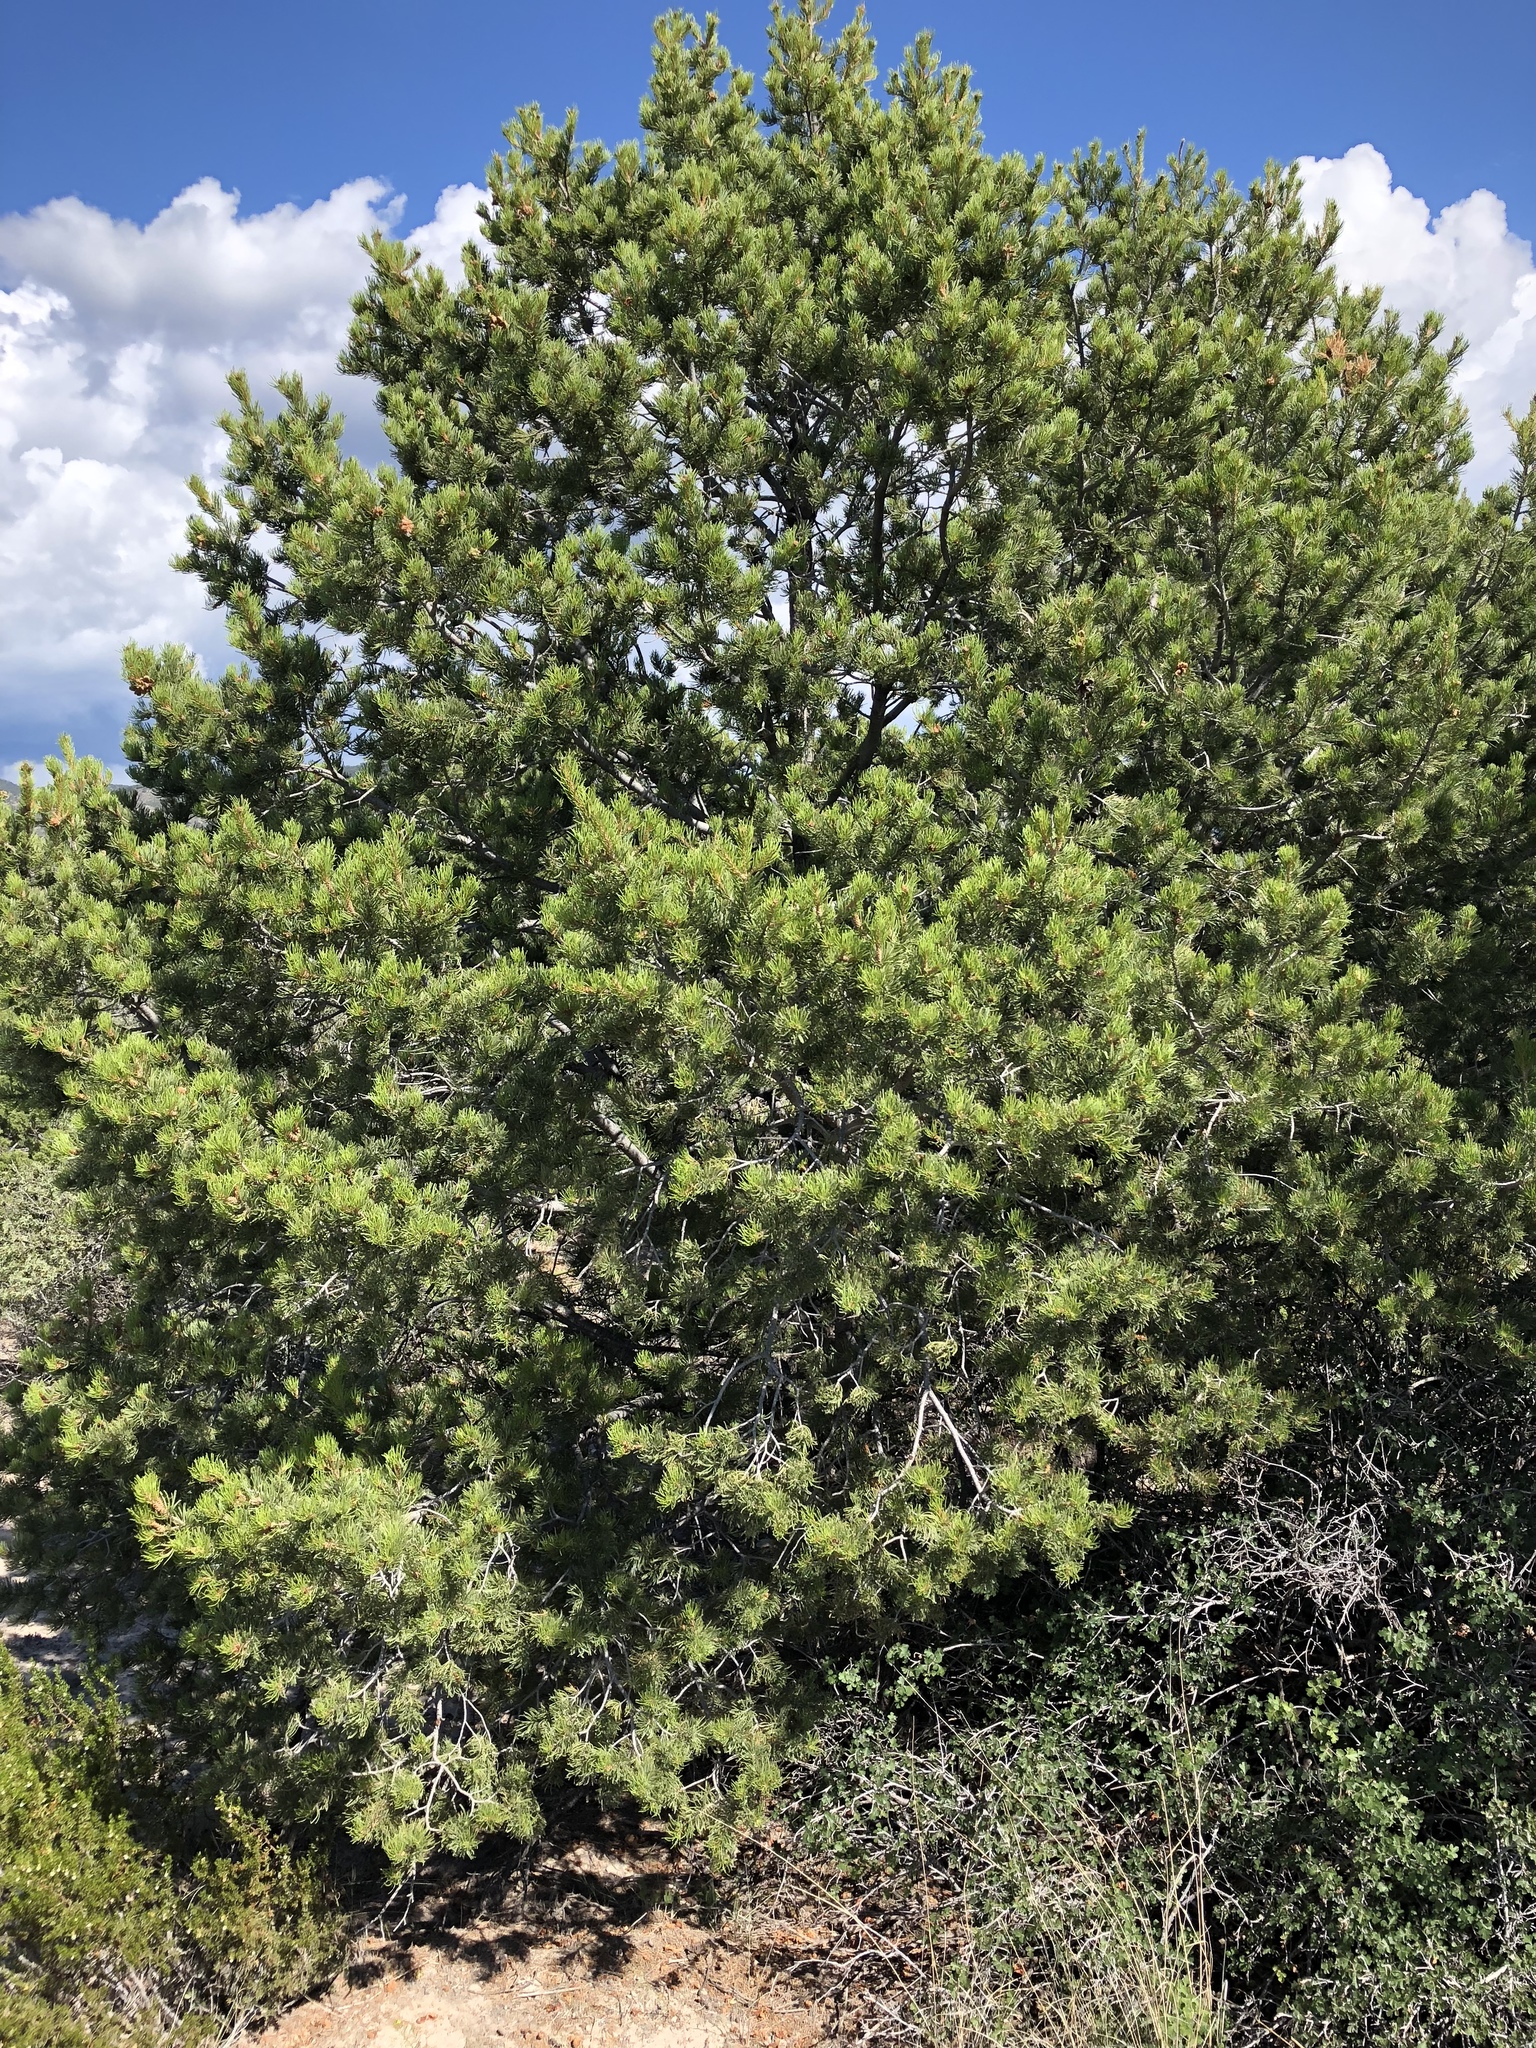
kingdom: Plantae
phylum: Tracheophyta
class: Pinopsida
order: Pinales
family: Pinaceae
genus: Pinus
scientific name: Pinus edulis
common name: Colorado pinyon
